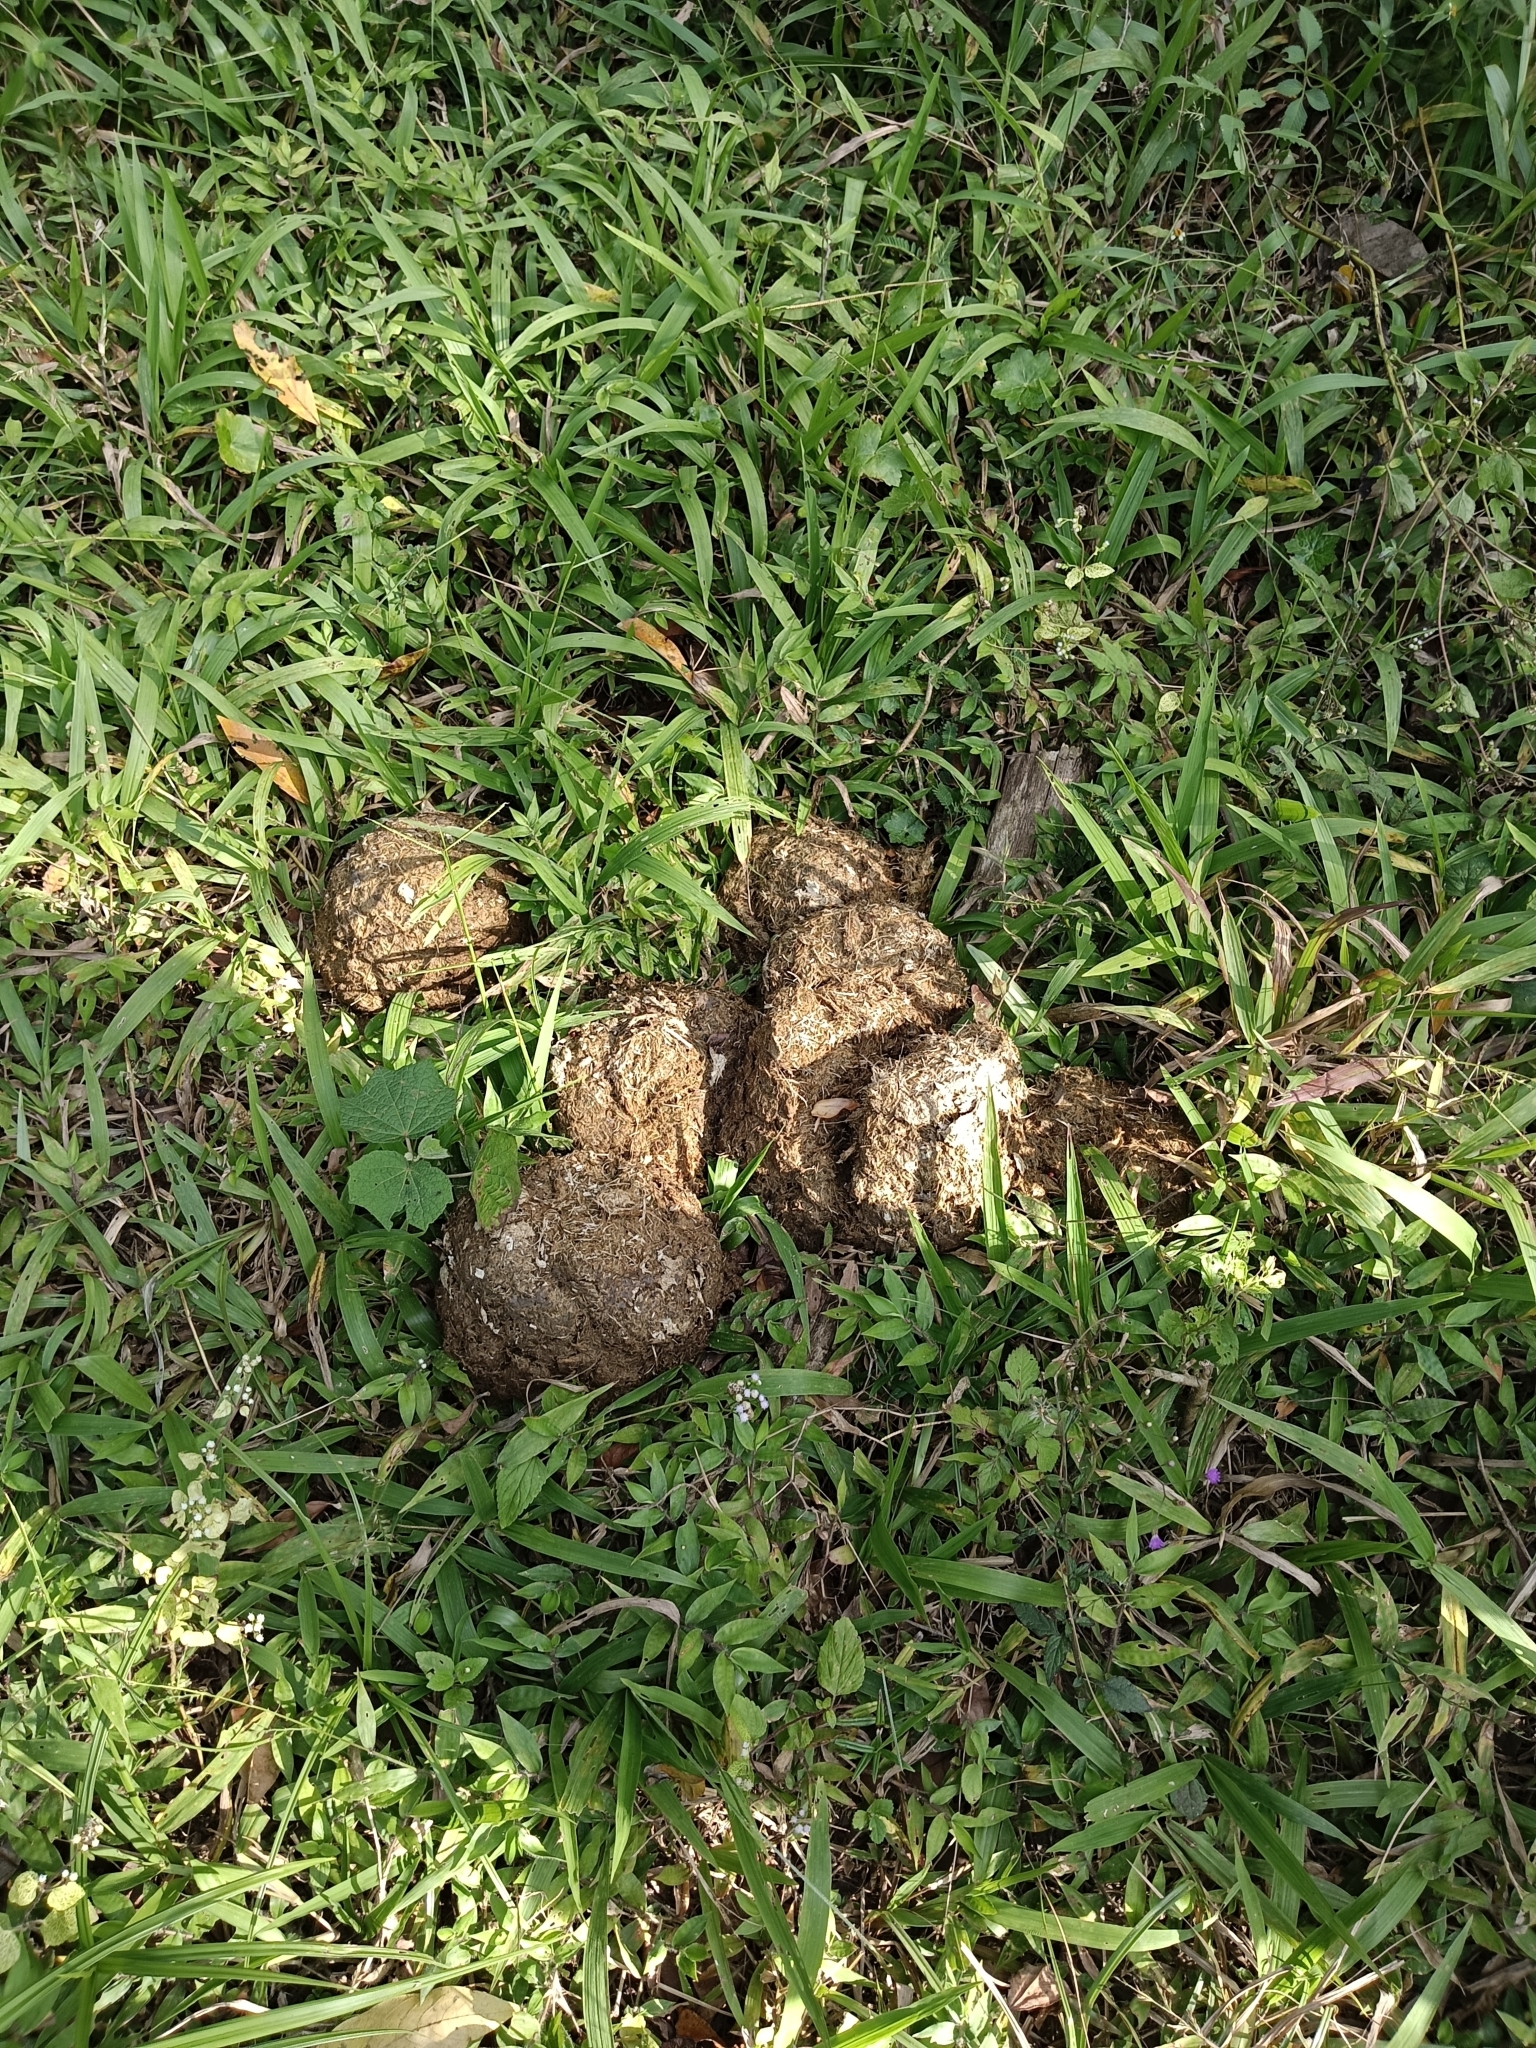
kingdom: Animalia
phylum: Chordata
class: Mammalia
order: Proboscidea
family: Elephantidae
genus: Elephas
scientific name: Elephas maximus
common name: Asian elephant
